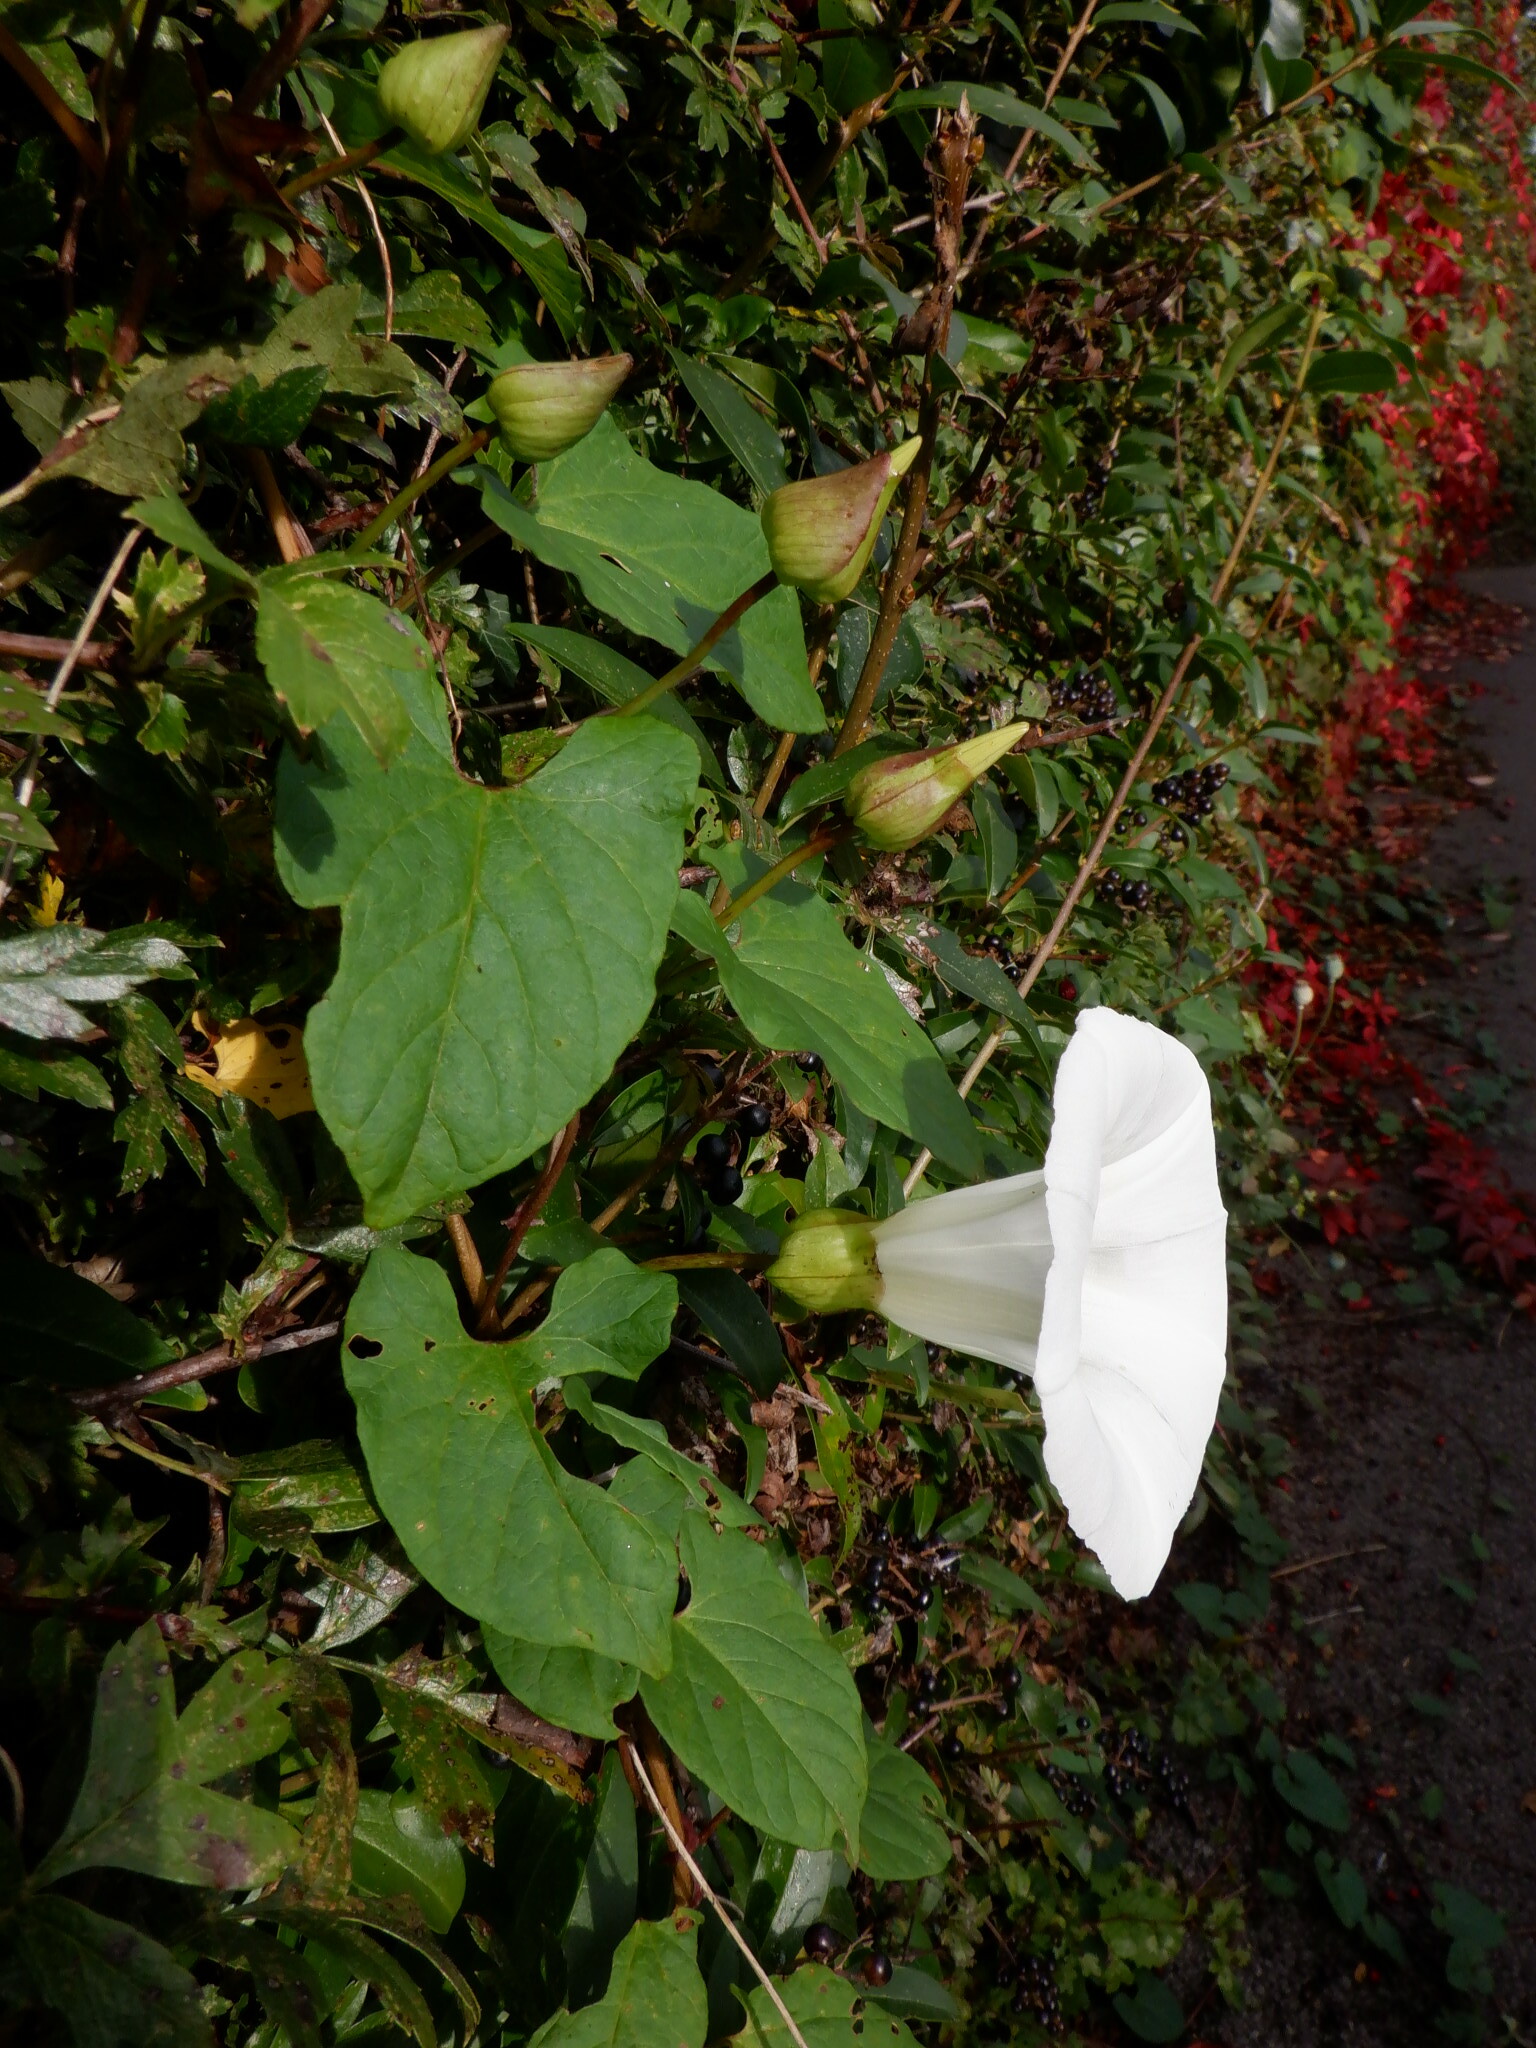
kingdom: Plantae
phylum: Tracheophyta
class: Magnoliopsida
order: Solanales
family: Convolvulaceae
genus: Calystegia
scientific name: Calystegia silvatica
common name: Large bindweed
